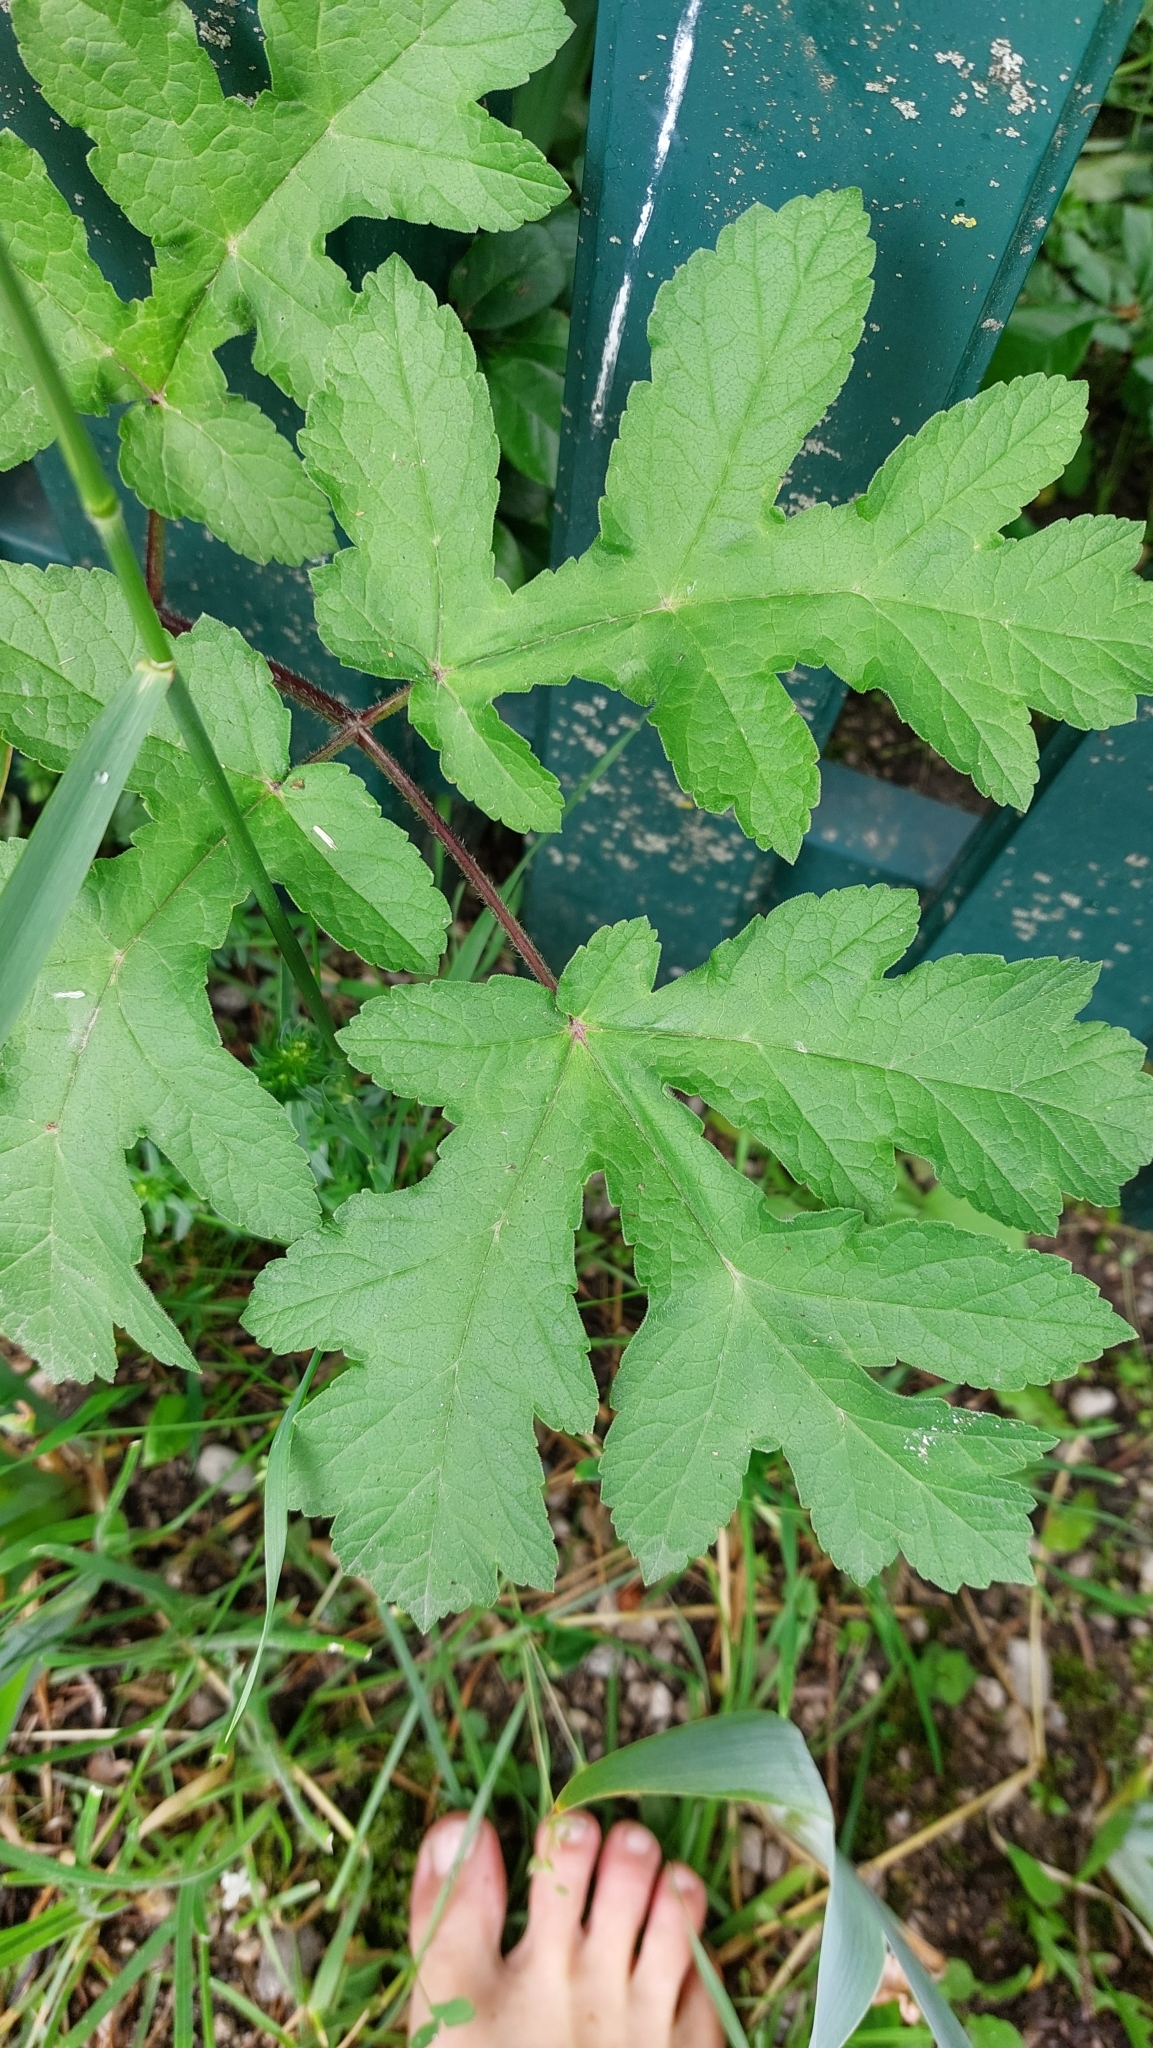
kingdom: Plantae
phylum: Tracheophyta
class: Magnoliopsida
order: Apiales
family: Apiaceae
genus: Heracleum
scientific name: Heracleum sphondylium
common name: Hogweed
